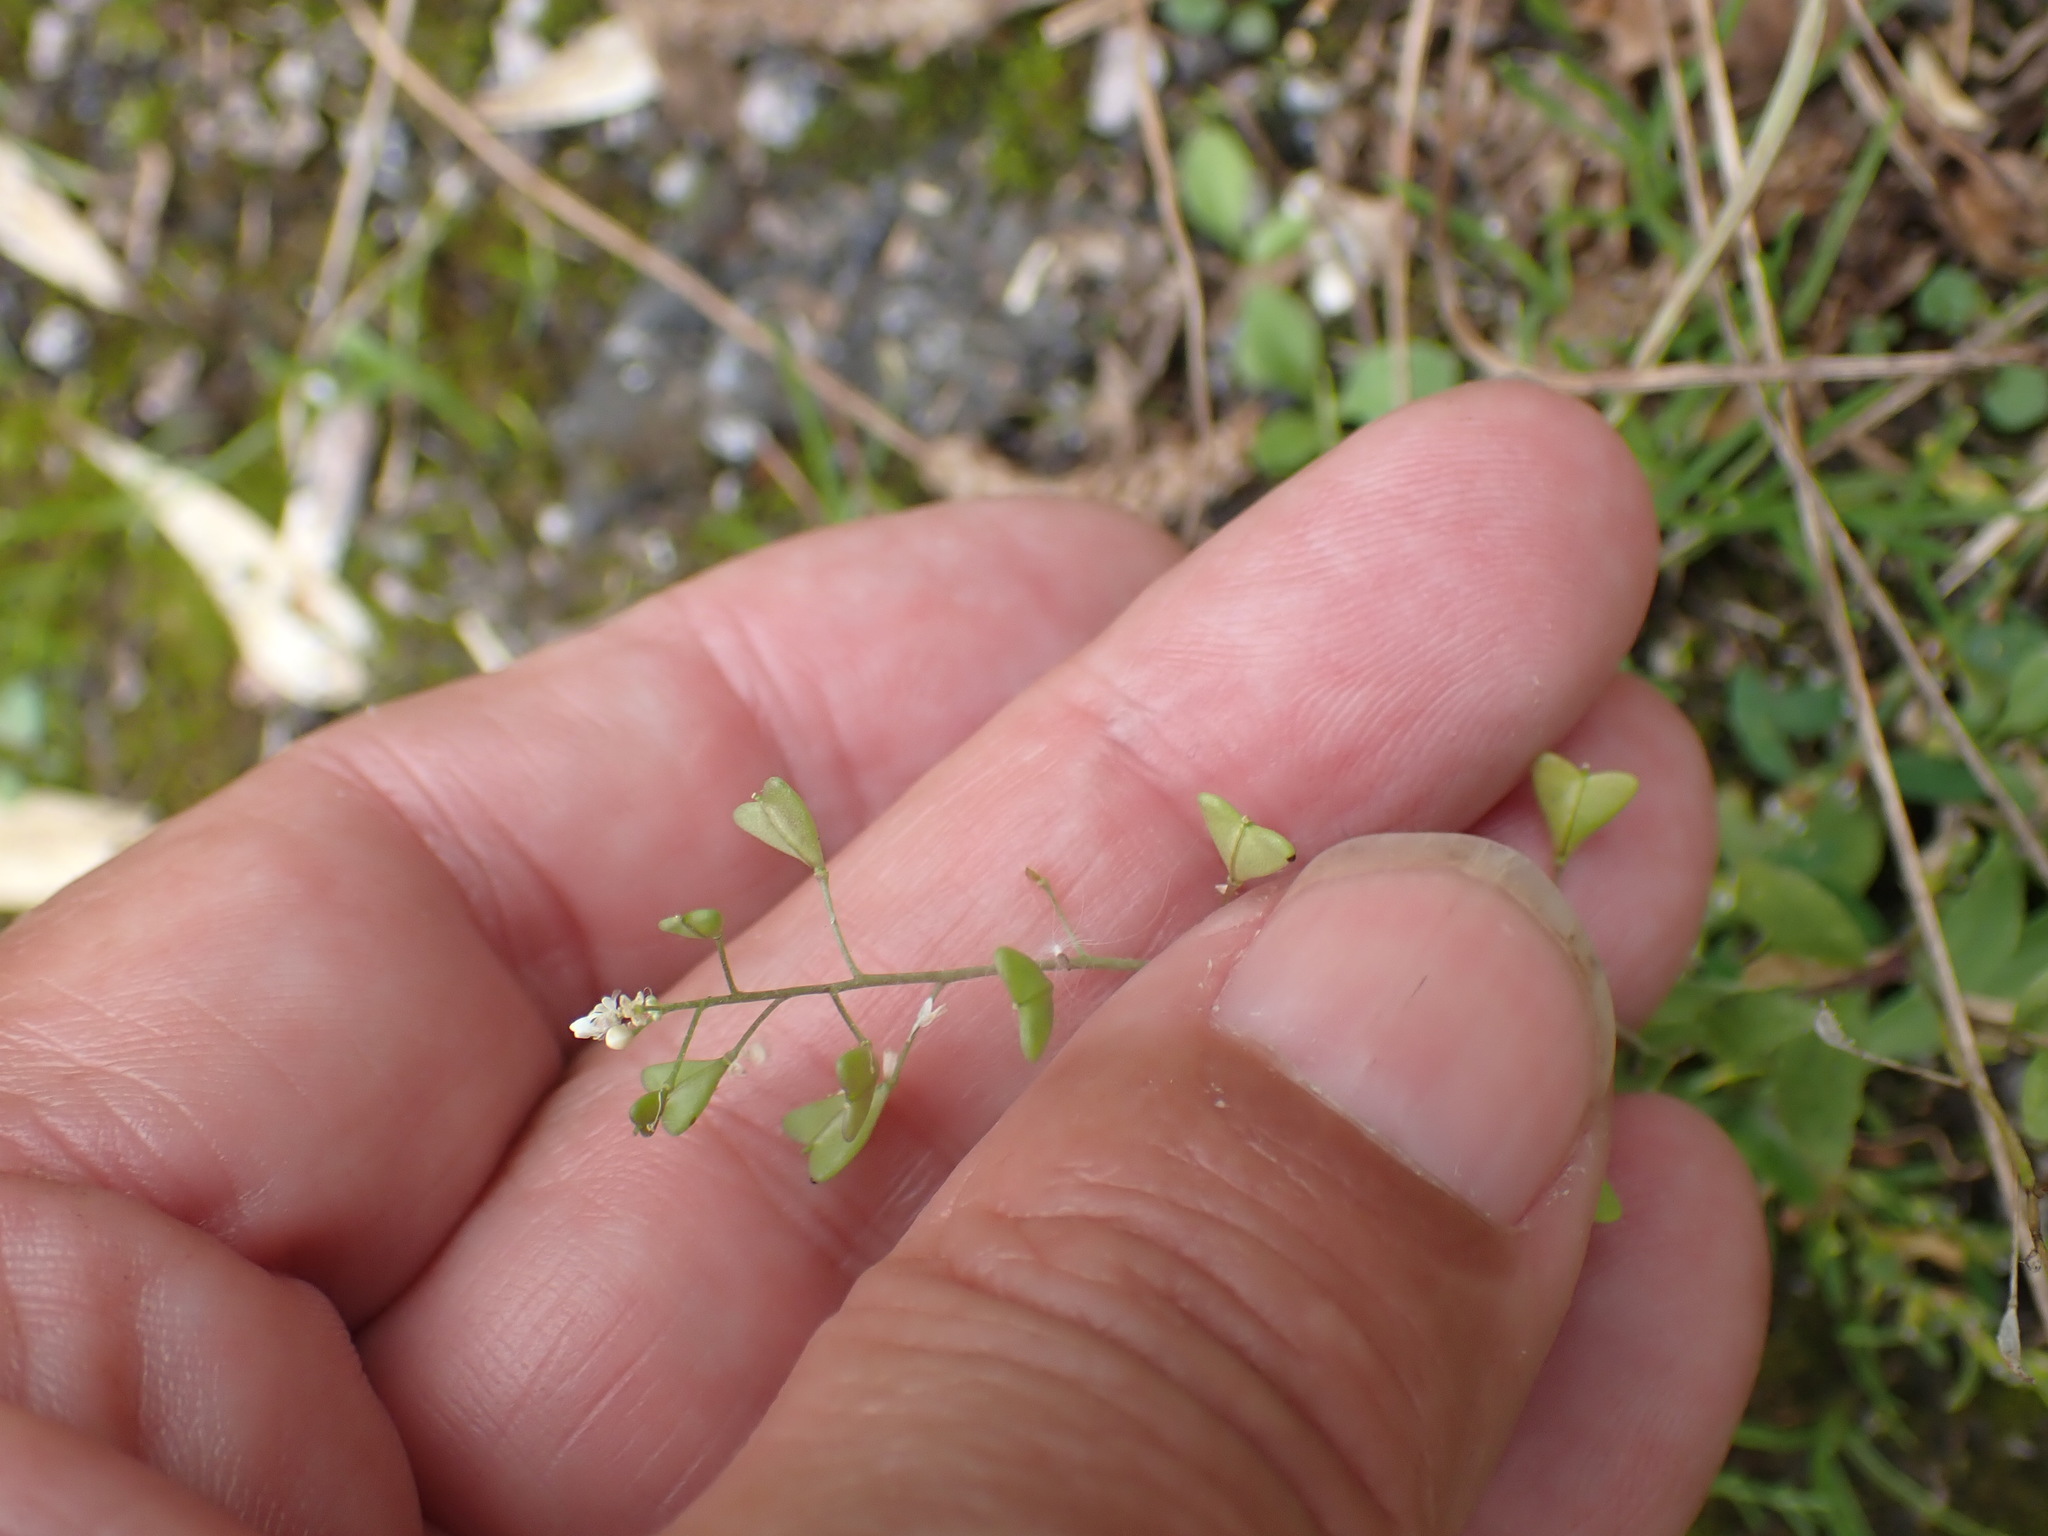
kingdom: Plantae
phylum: Tracheophyta
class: Magnoliopsida
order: Brassicales
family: Brassicaceae
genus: Capsella
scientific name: Capsella bursa-pastoris
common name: Shepherd's purse
